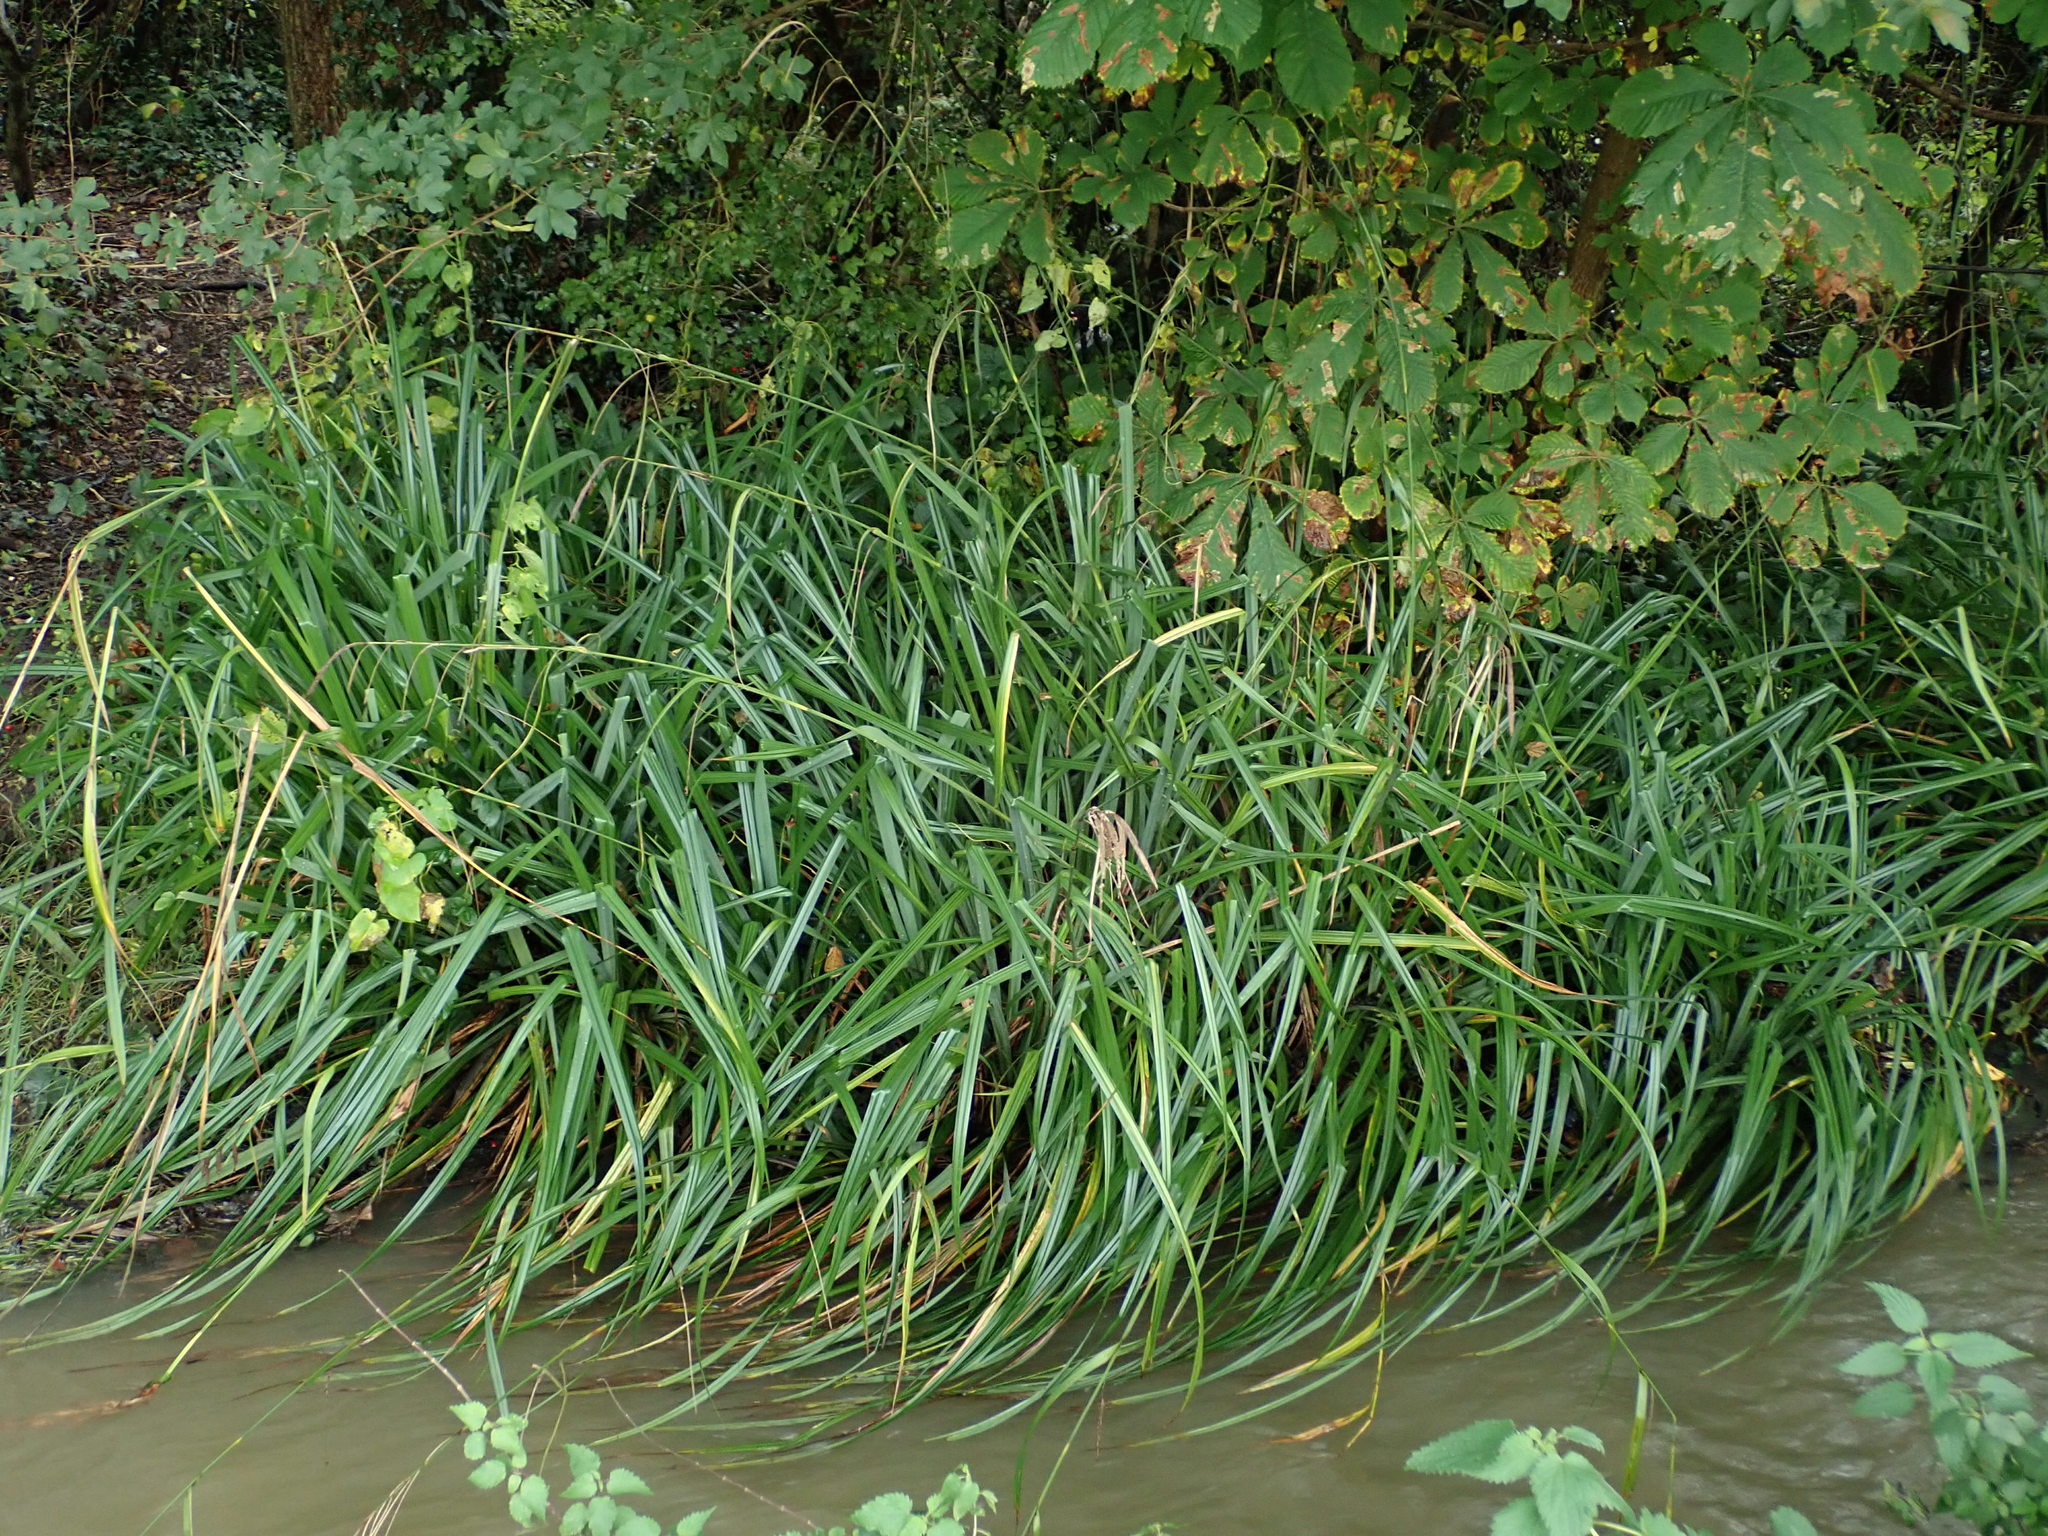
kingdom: Plantae
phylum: Tracheophyta
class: Liliopsida
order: Poales
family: Cyperaceae
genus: Carex
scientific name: Carex pendula
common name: Pendulous sedge
